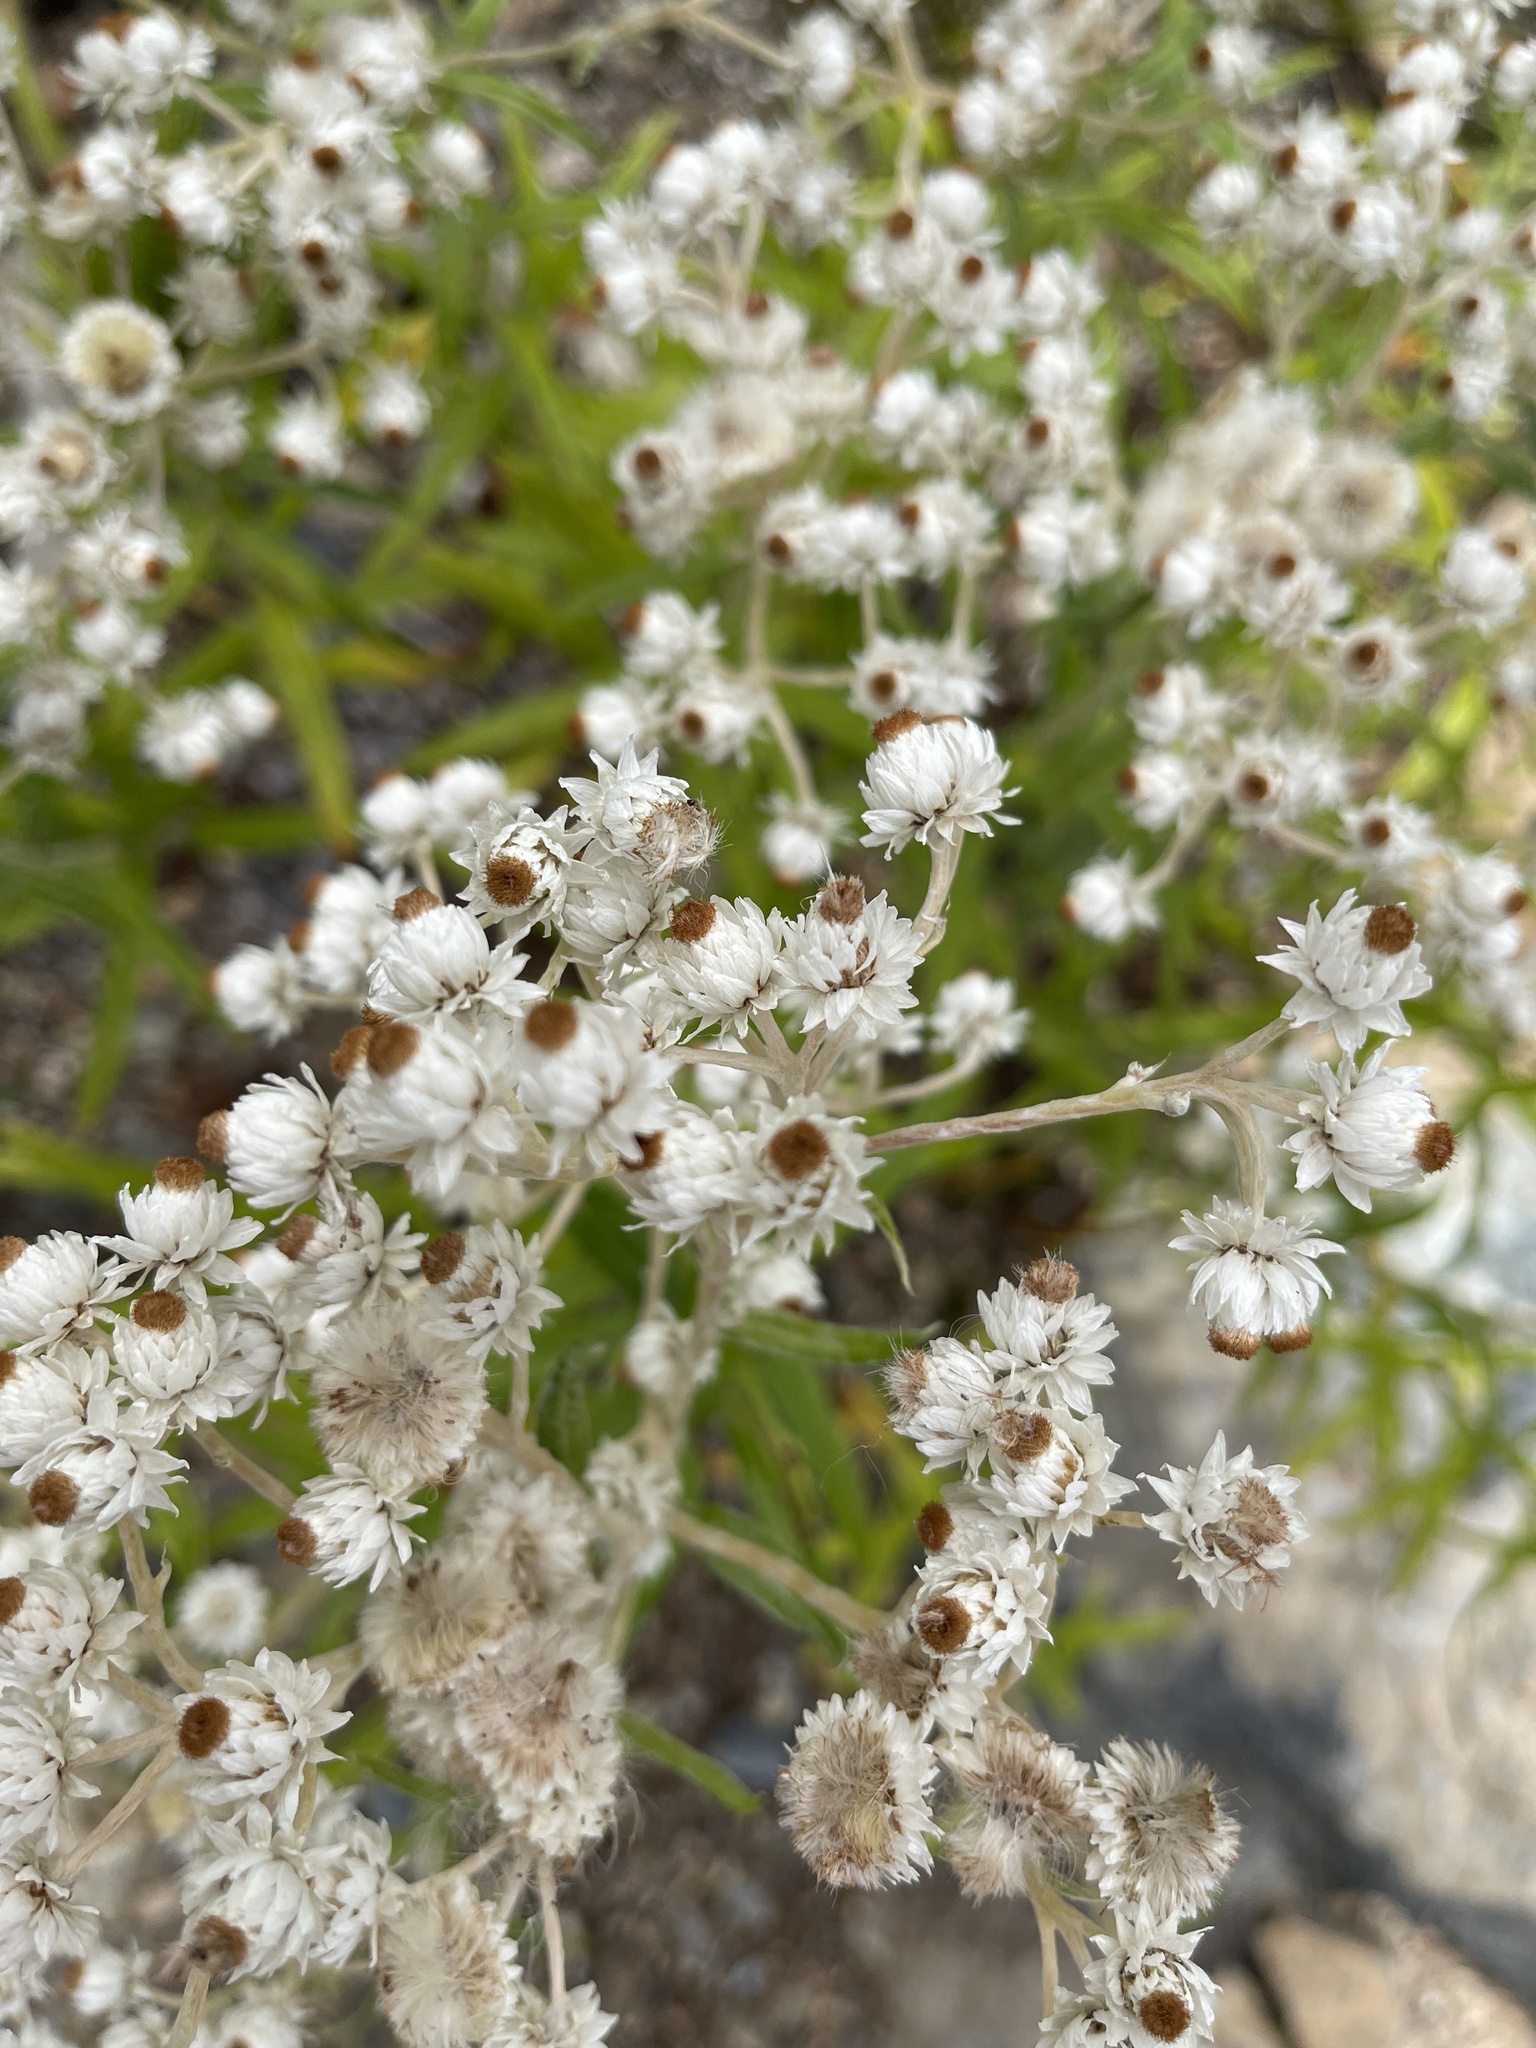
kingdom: Plantae
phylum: Tracheophyta
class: Magnoliopsida
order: Asterales
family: Asteraceae
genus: Anaphalis
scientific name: Anaphalis margaritacea
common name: Pearly everlasting
